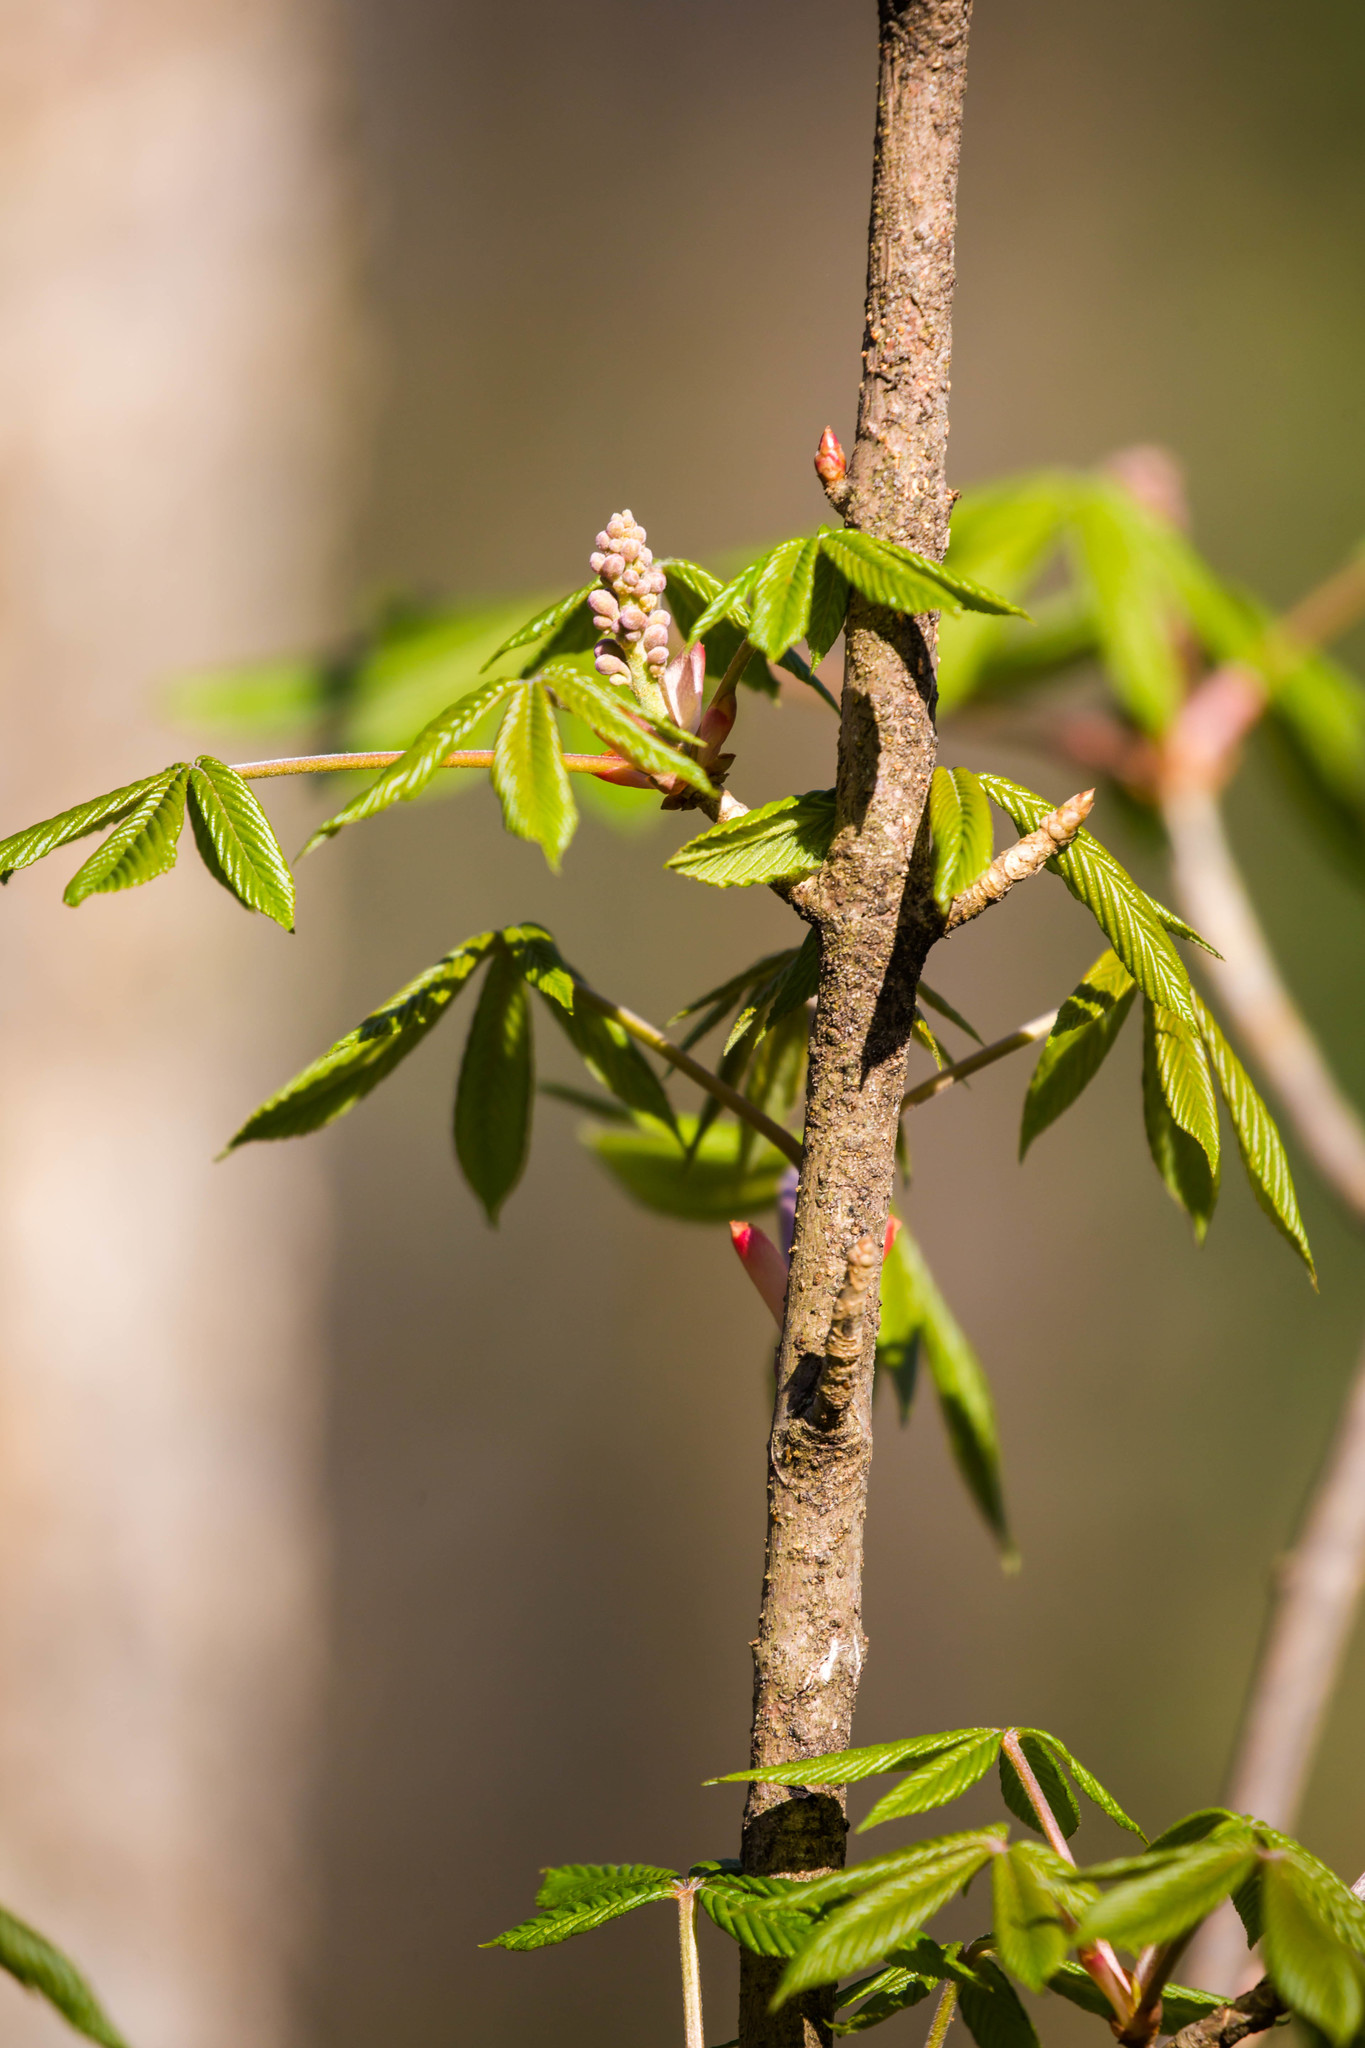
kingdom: Plantae
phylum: Tracheophyta
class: Magnoliopsida
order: Sapindales
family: Sapindaceae
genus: Aesculus
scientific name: Aesculus pavia
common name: Red buckeye
